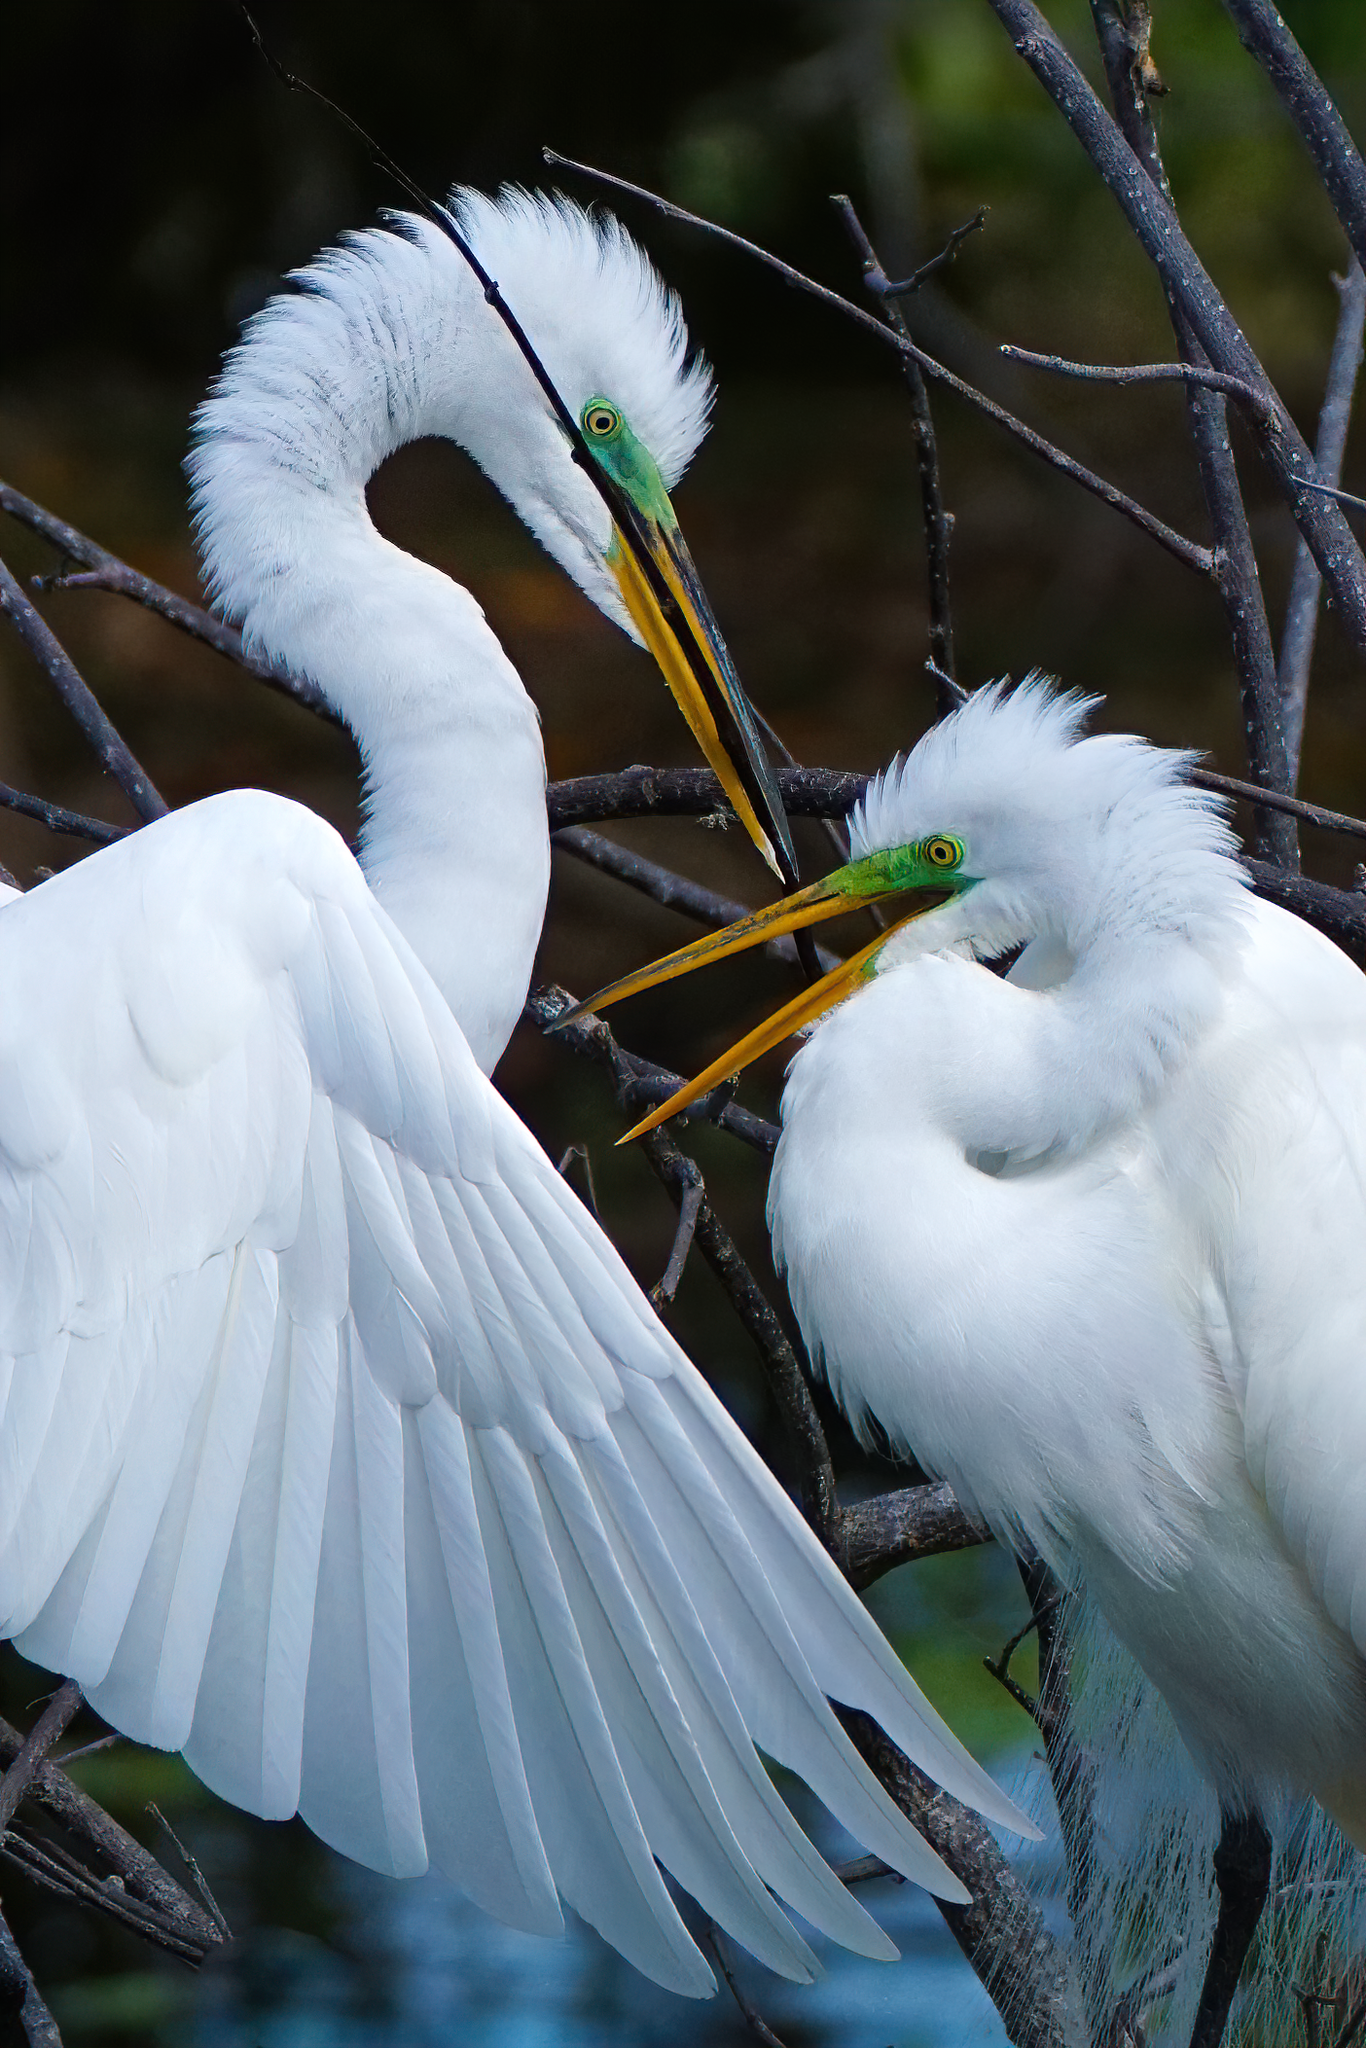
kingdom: Animalia
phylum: Chordata
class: Aves
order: Pelecaniformes
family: Ardeidae
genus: Ardea
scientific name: Ardea alba
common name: Great egret
